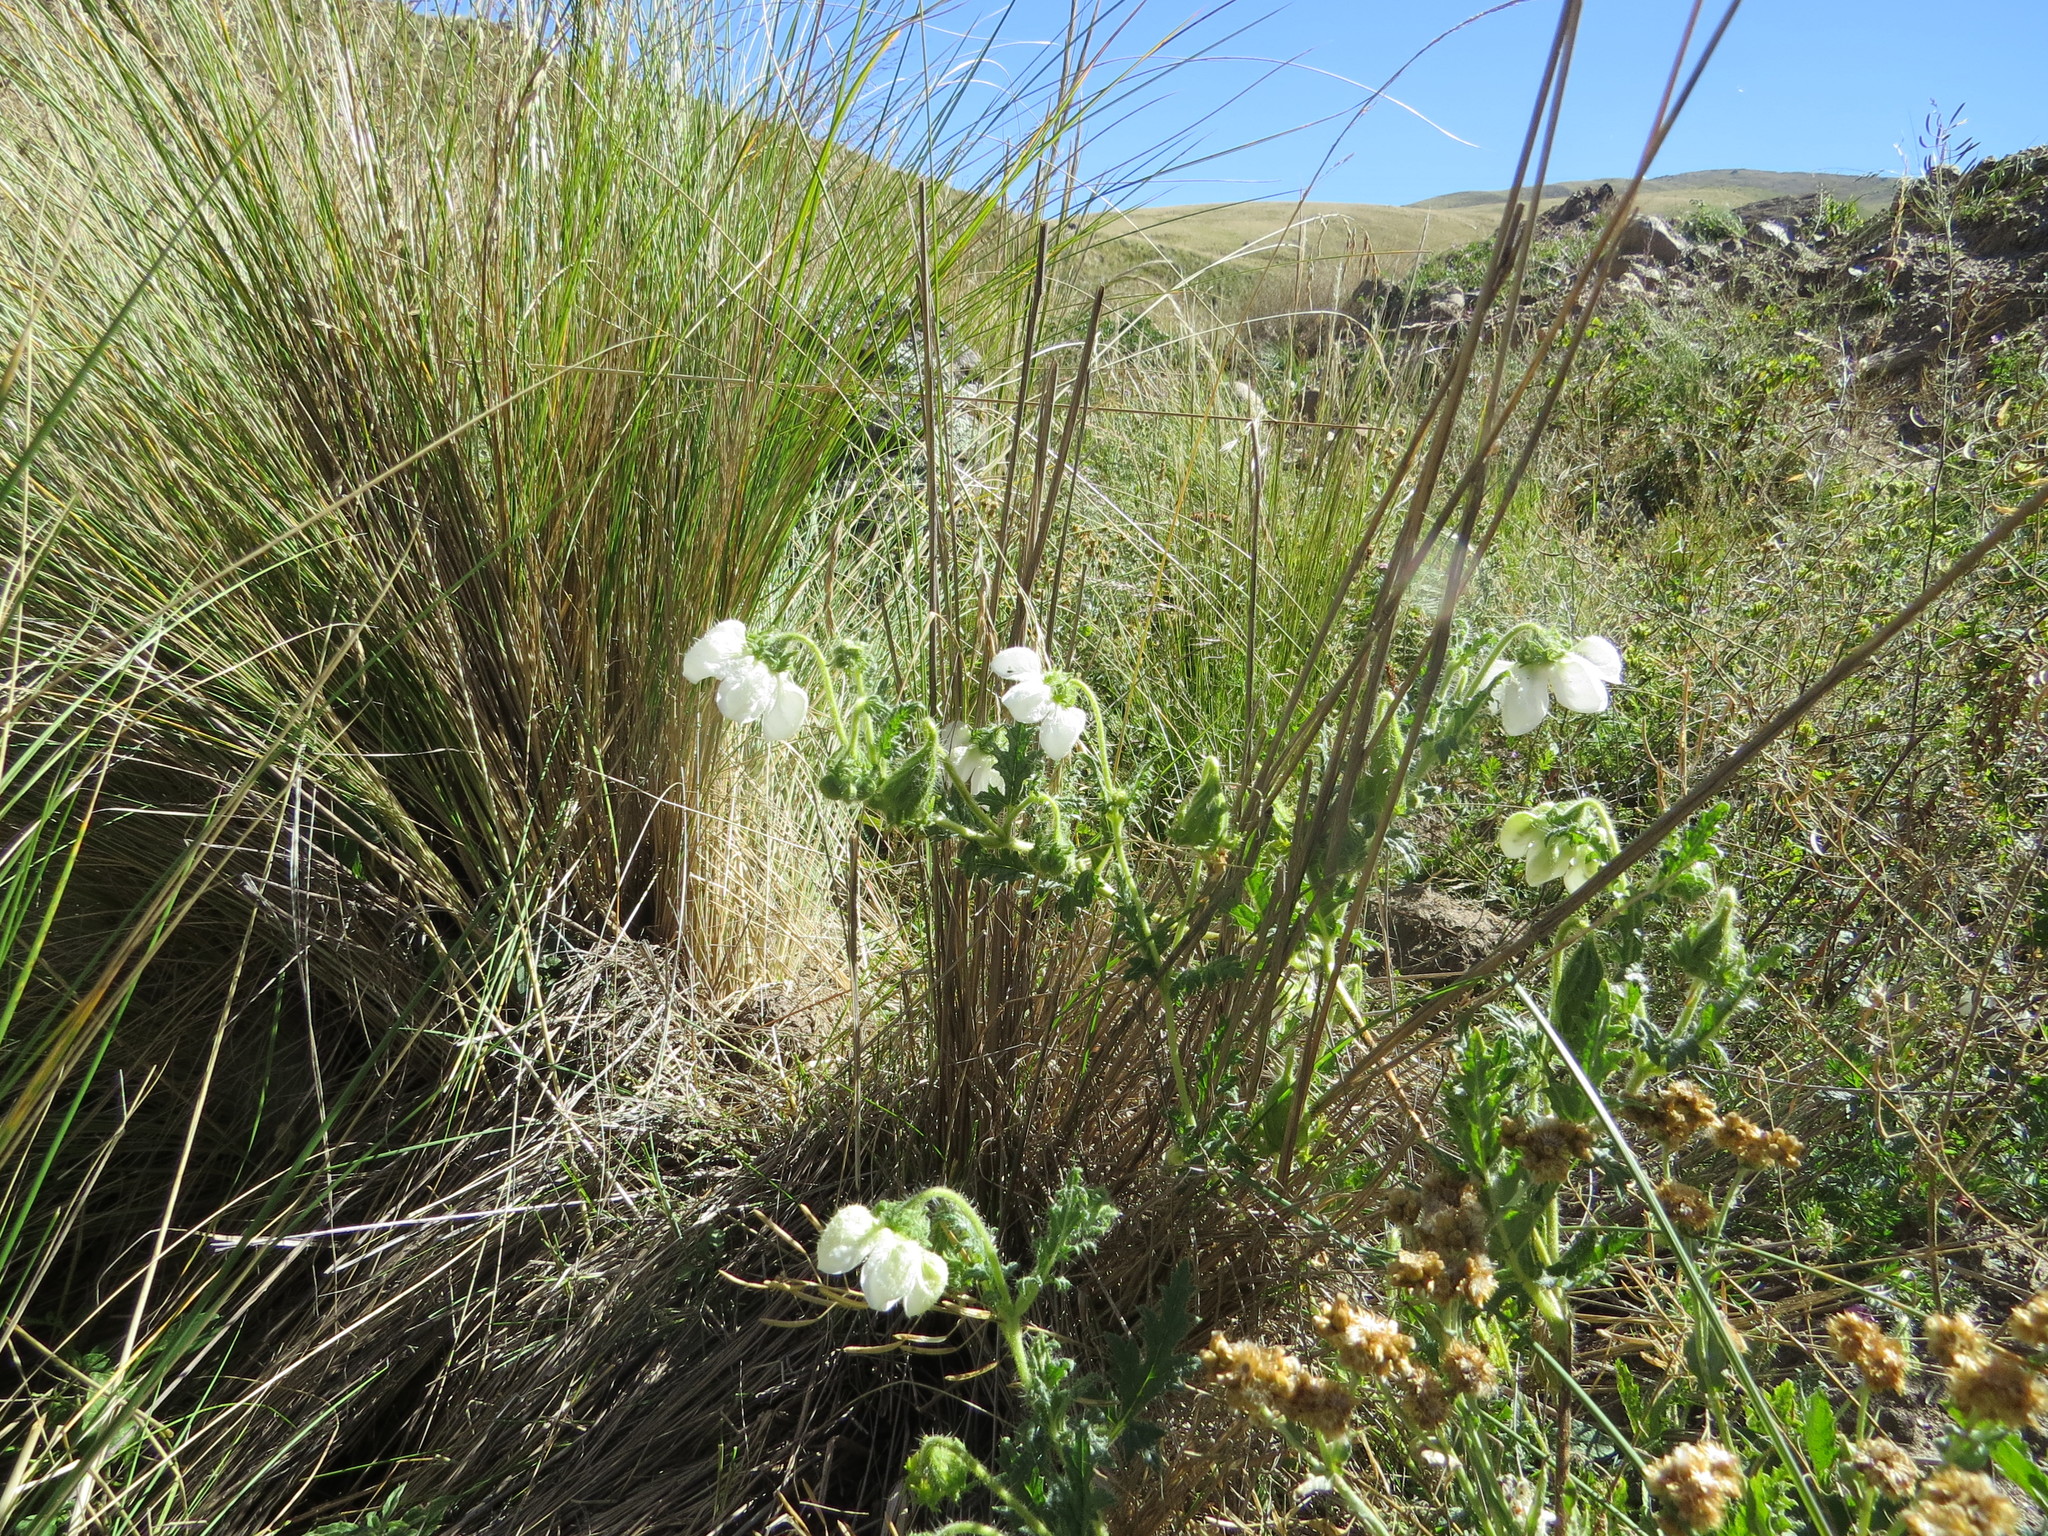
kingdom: Plantae
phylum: Tracheophyta
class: Magnoliopsida
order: Cornales
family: Loasaceae
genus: Caiophora
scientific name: Caiophora clavata
